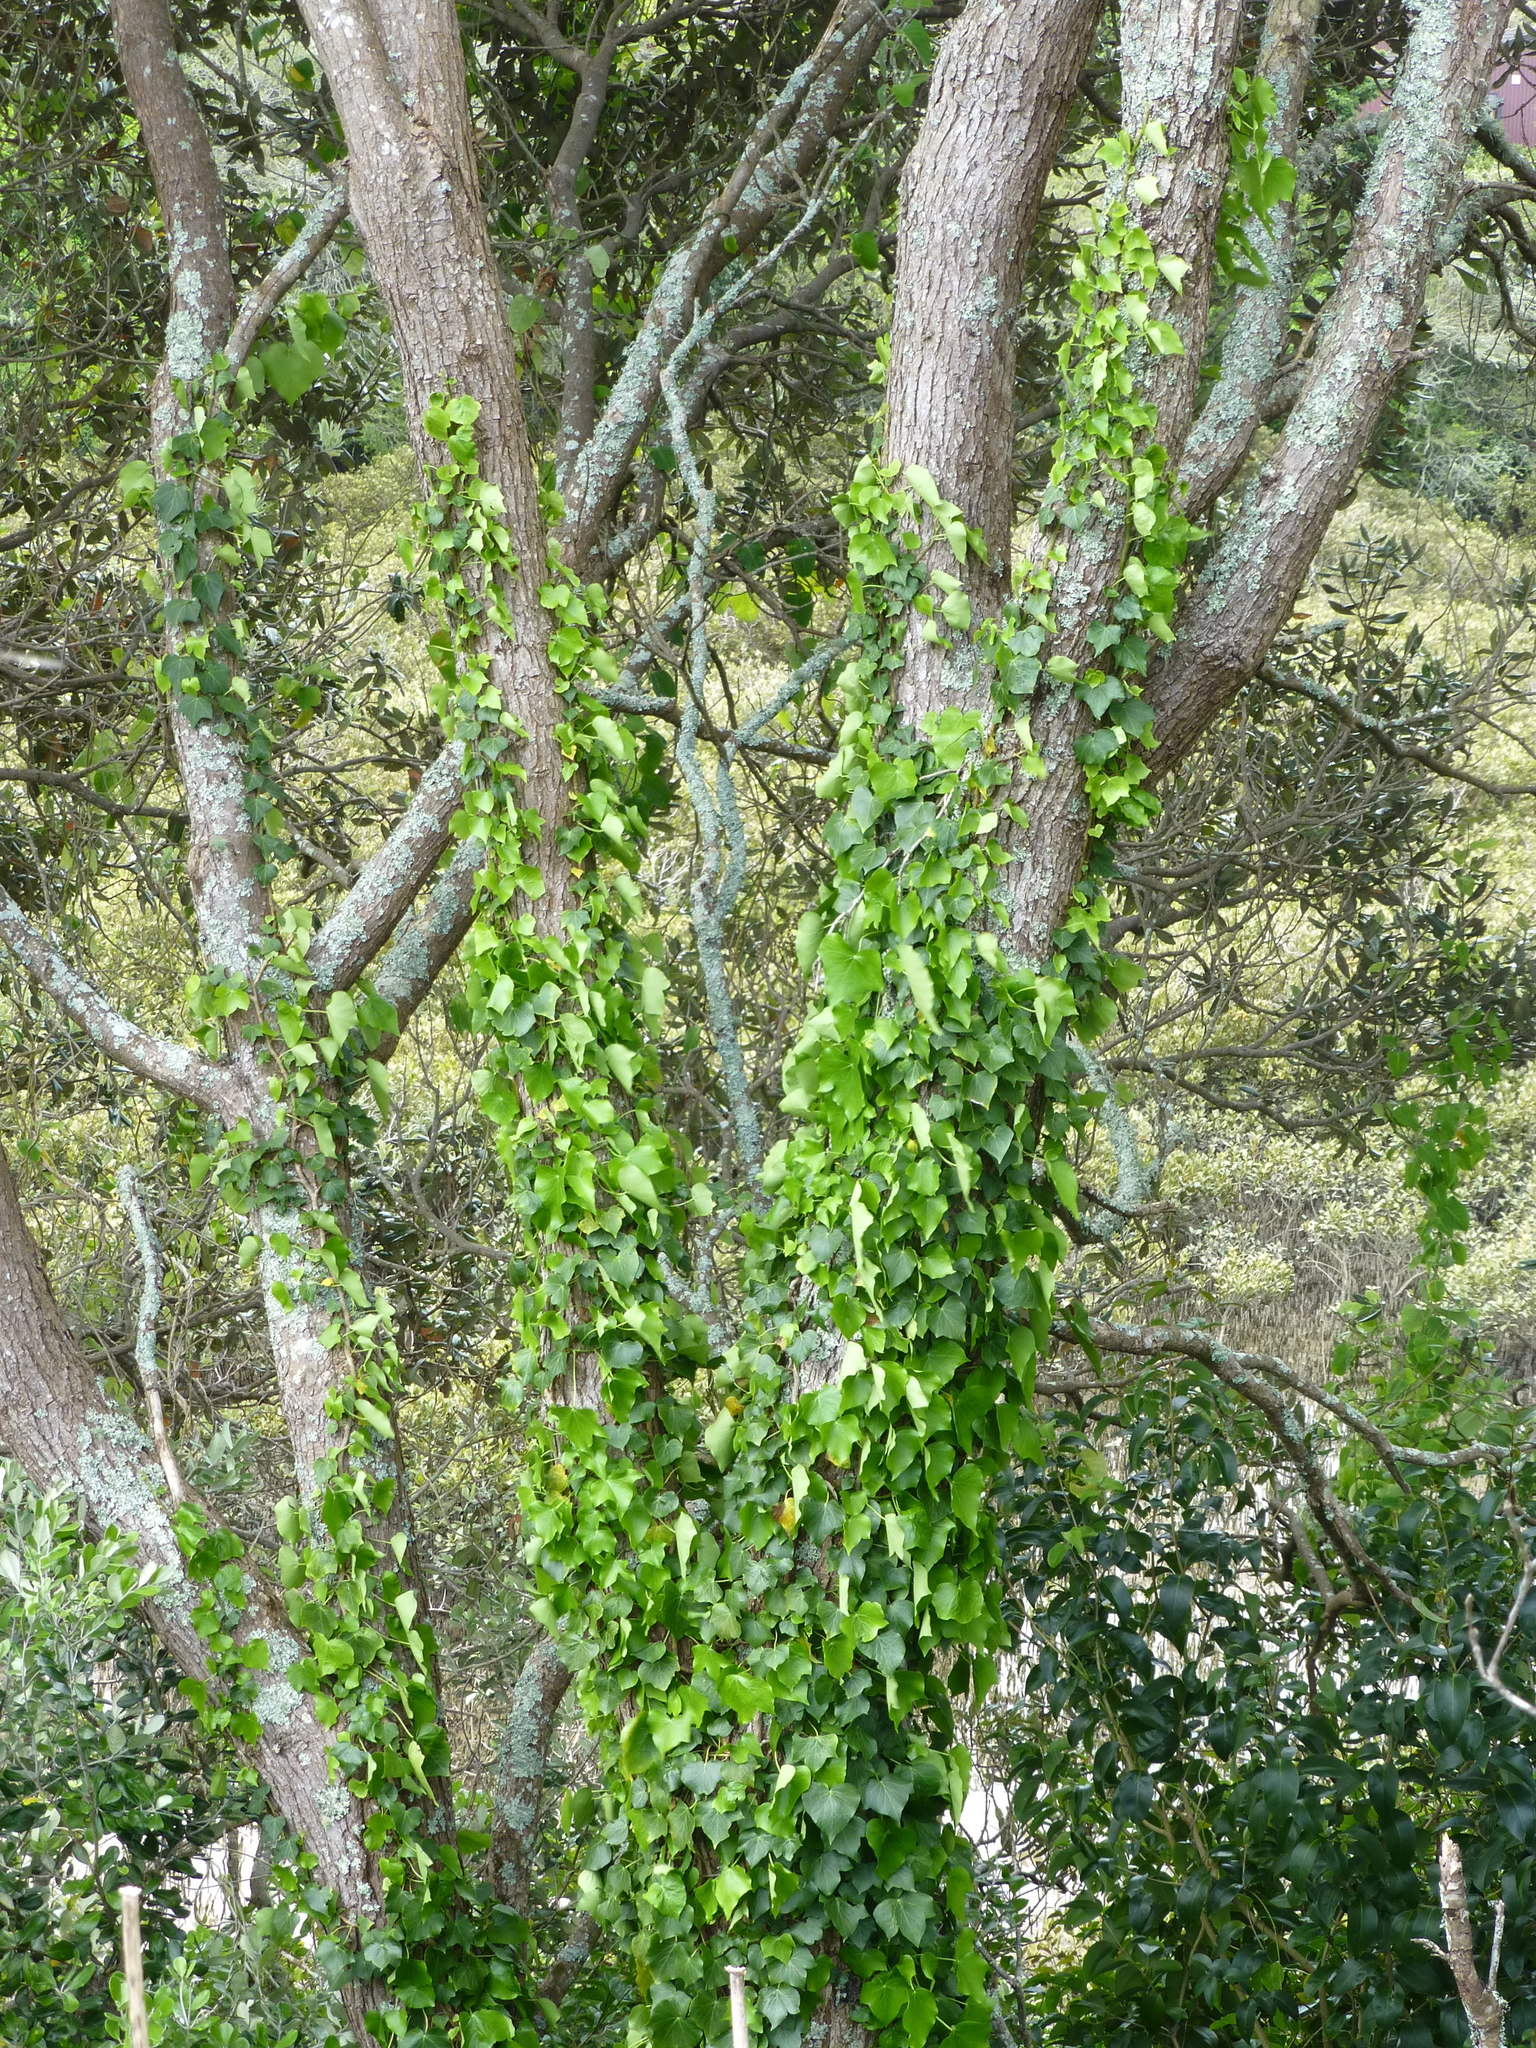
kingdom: Plantae
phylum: Tracheophyta
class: Magnoliopsida
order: Apiales
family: Araliaceae
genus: Hedera
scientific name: Hedera helix
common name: Ivy
